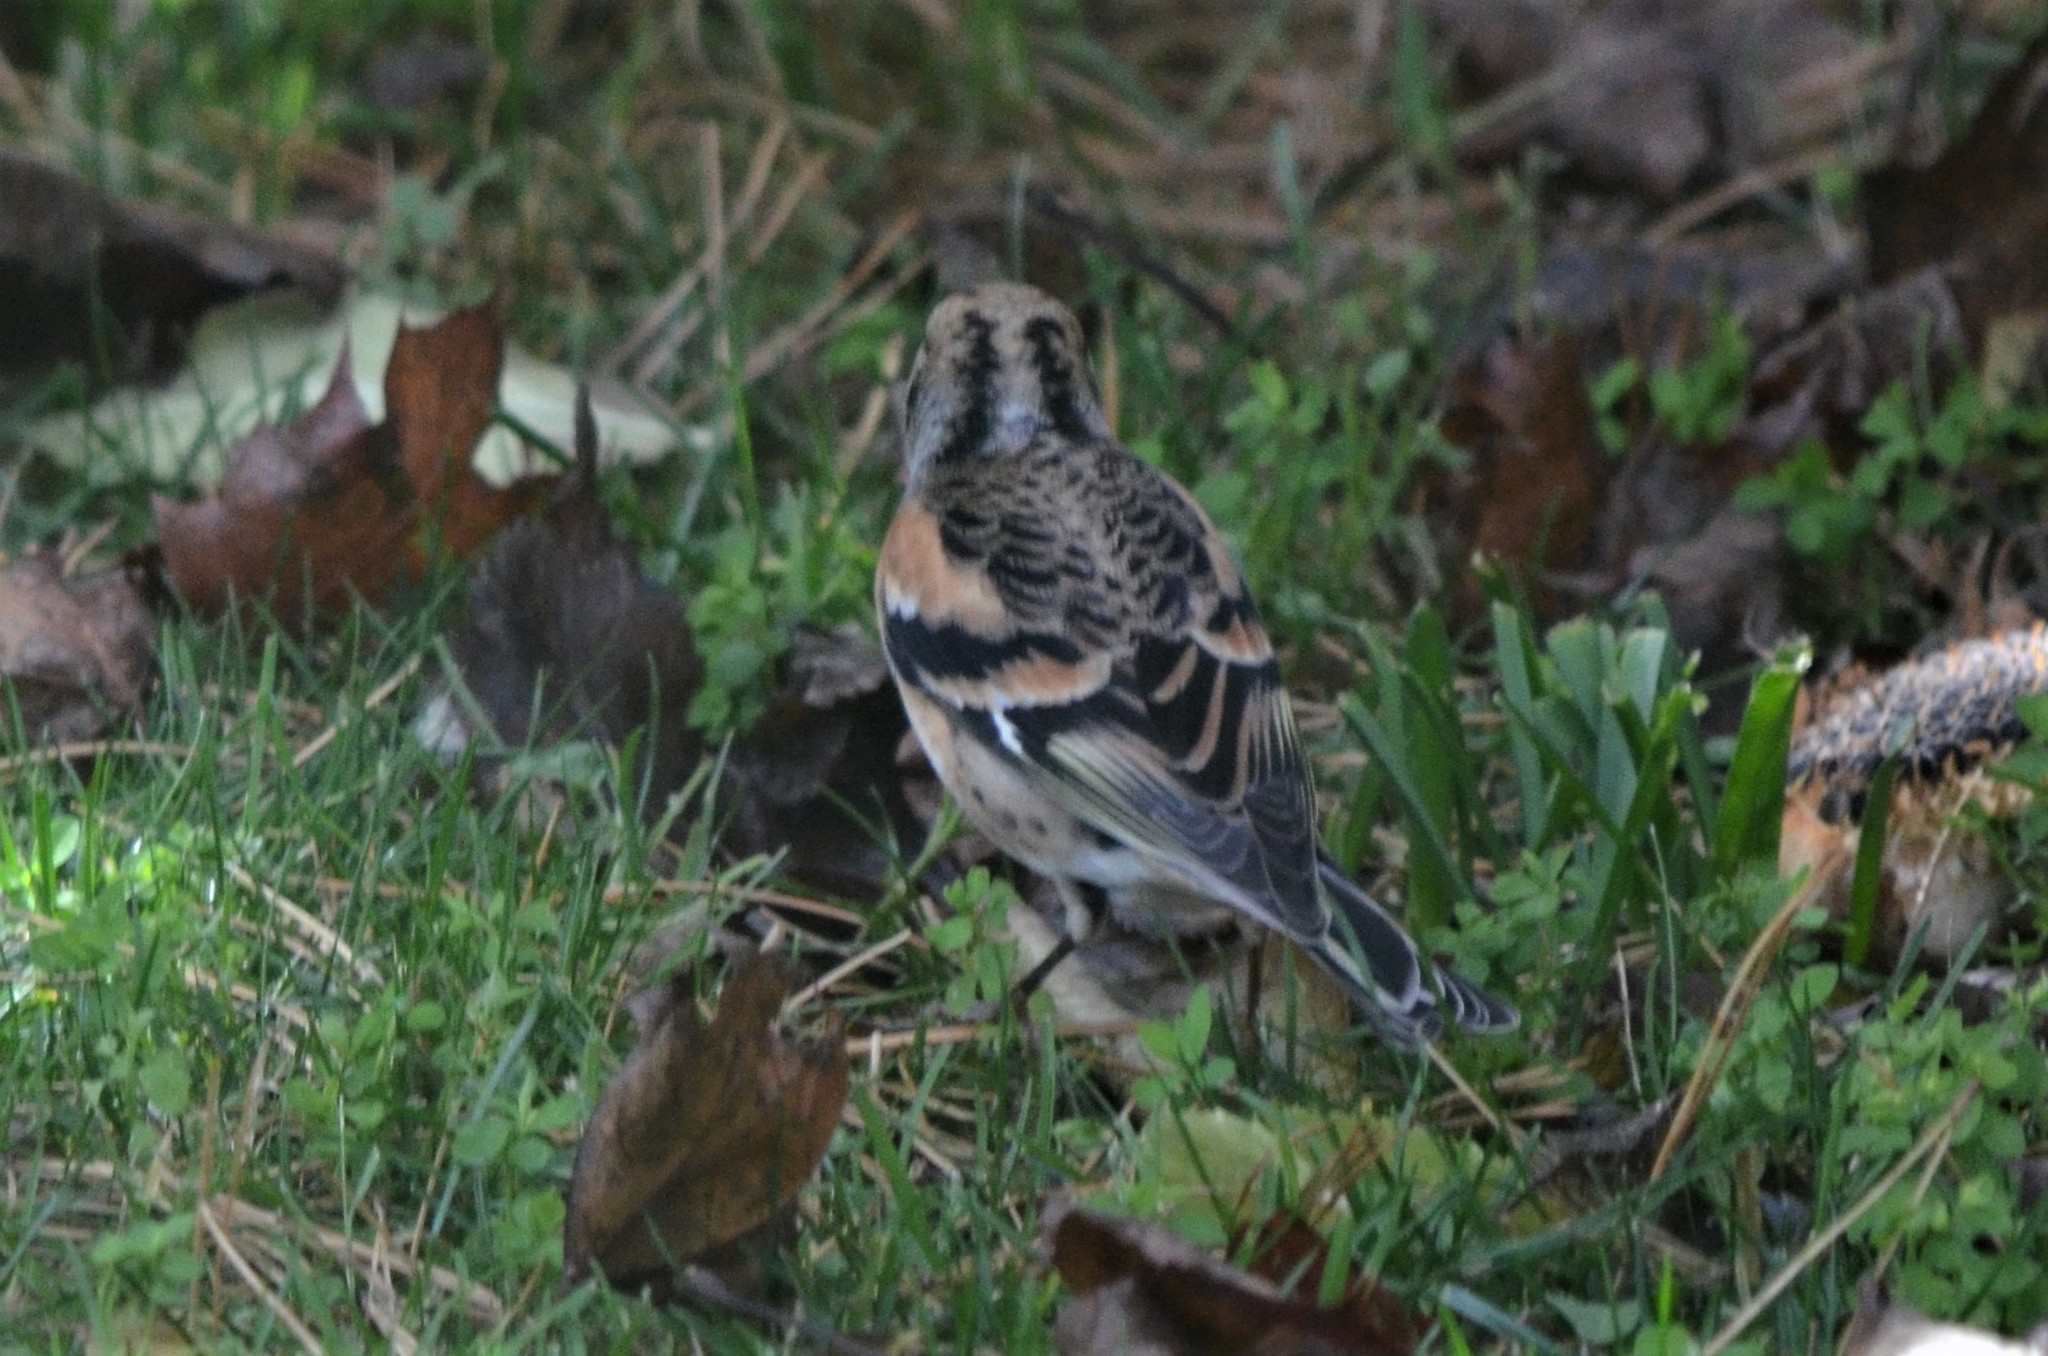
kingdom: Animalia
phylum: Chordata
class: Aves
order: Passeriformes
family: Fringillidae
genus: Fringilla
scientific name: Fringilla montifringilla
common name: Brambling
